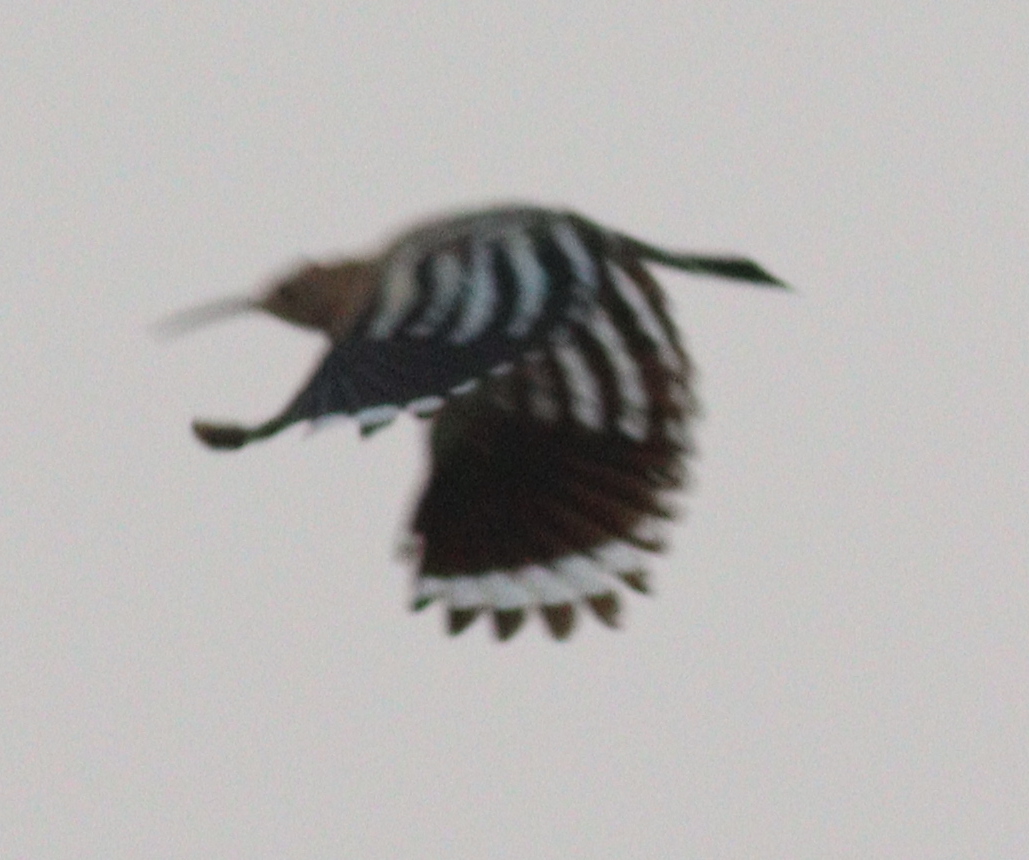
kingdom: Animalia
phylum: Chordata
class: Aves
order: Bucerotiformes
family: Upupidae
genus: Upupa
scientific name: Upupa epops
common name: Eurasian hoopoe
